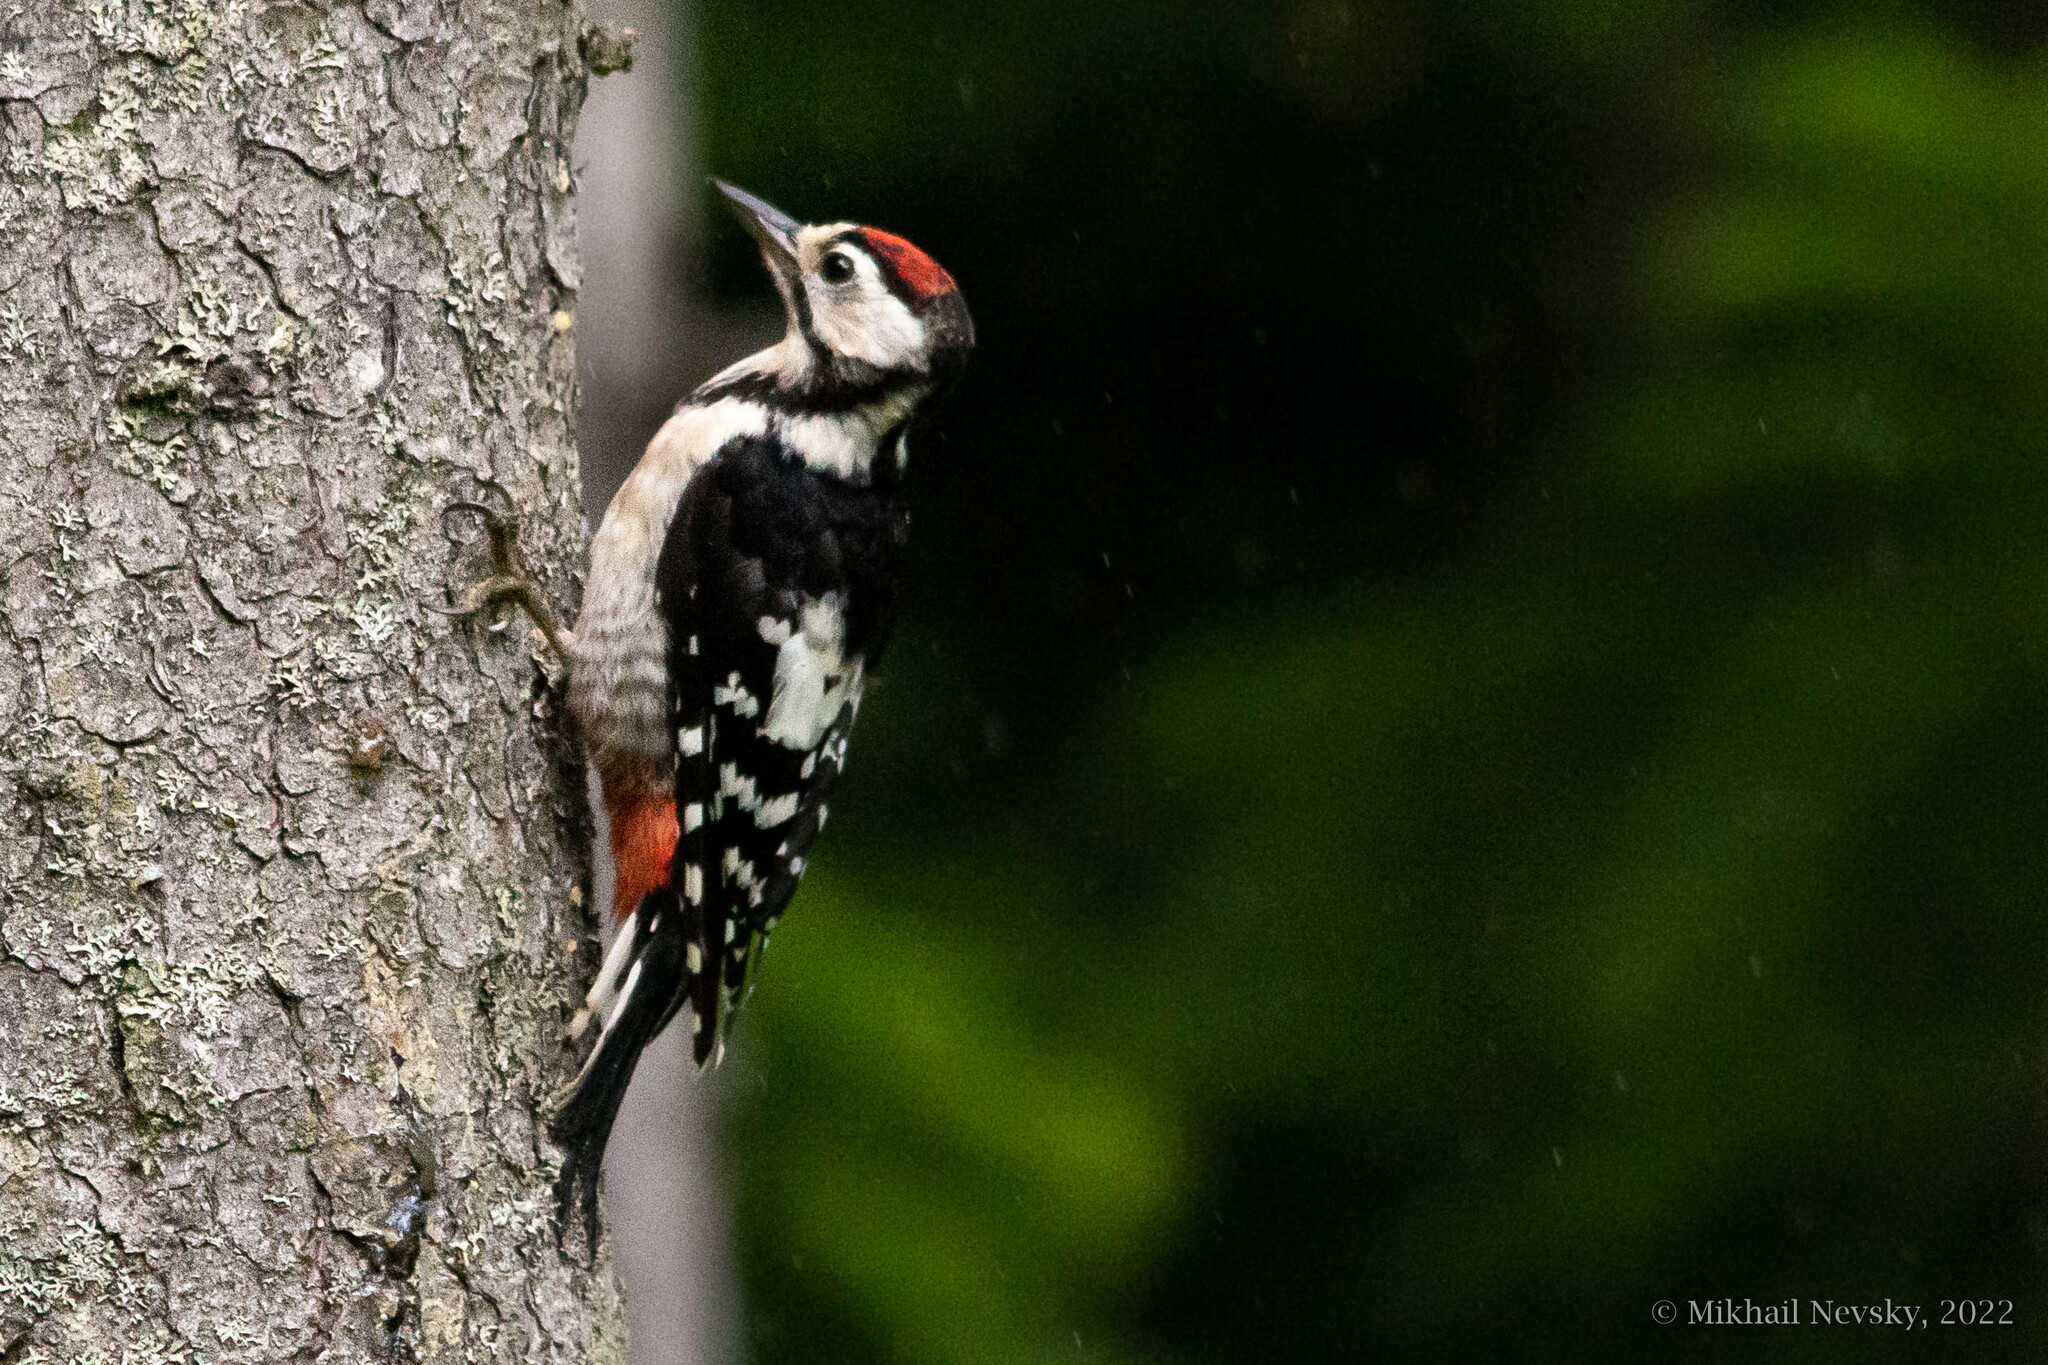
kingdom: Animalia
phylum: Chordata
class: Aves
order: Piciformes
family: Picidae
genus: Dendrocopos
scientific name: Dendrocopos major
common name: Great spotted woodpecker
